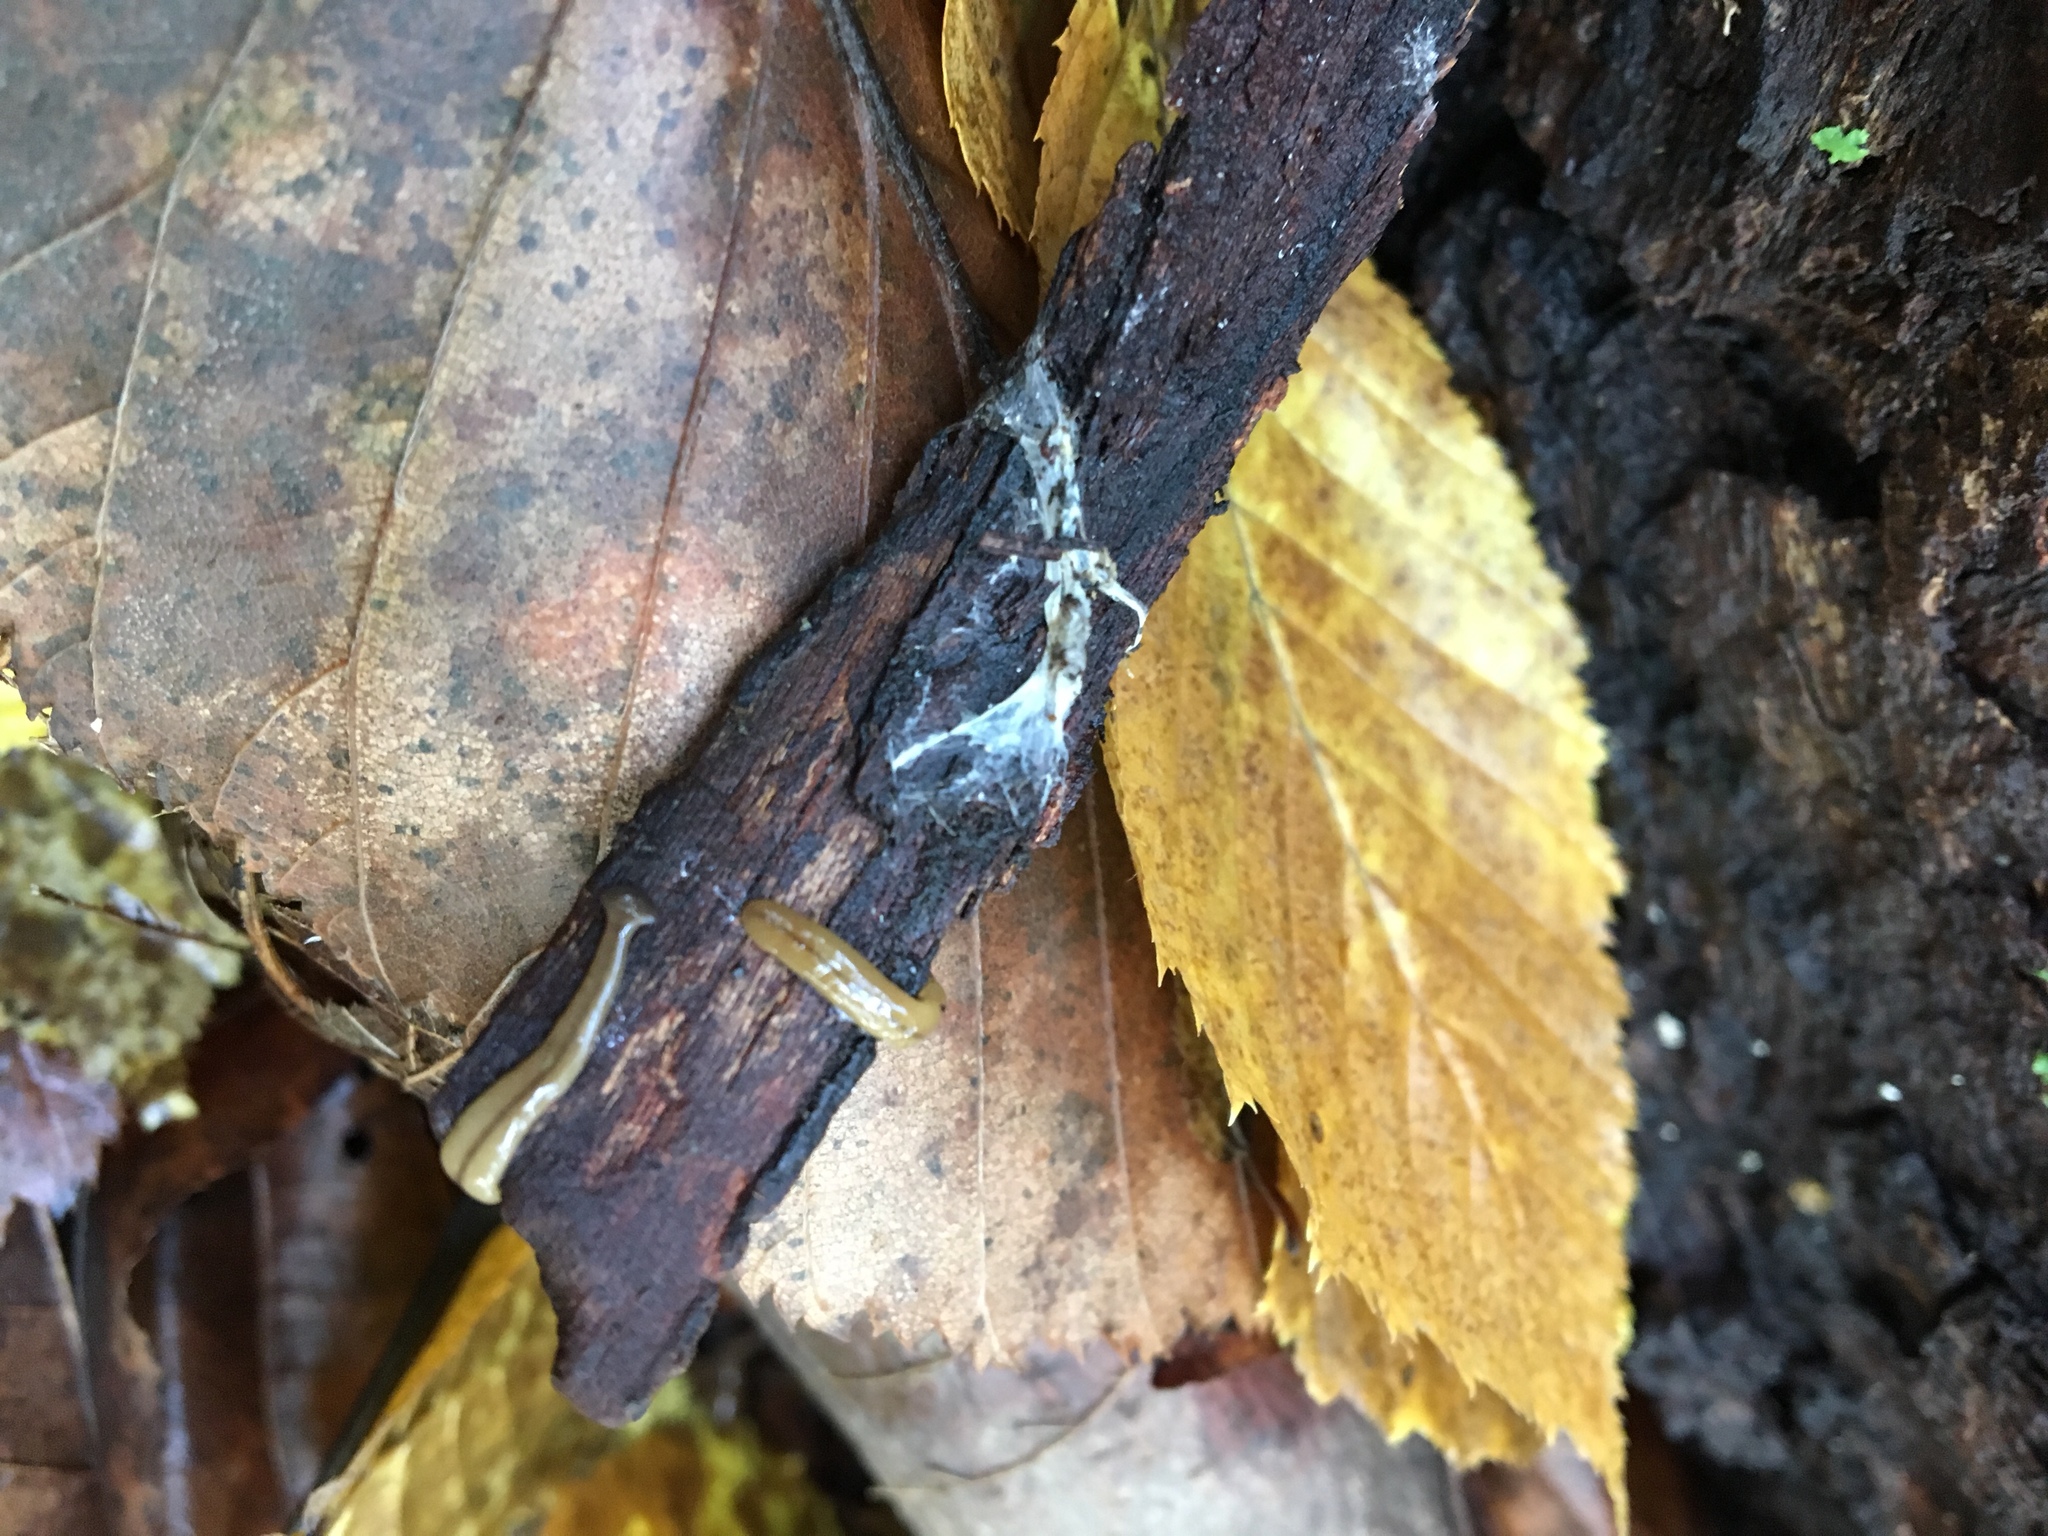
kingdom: Animalia
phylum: Platyhelminthes
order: Tricladida
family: Geoplanidae
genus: Bipalium
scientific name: Bipalium adventitium
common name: Land planarian
